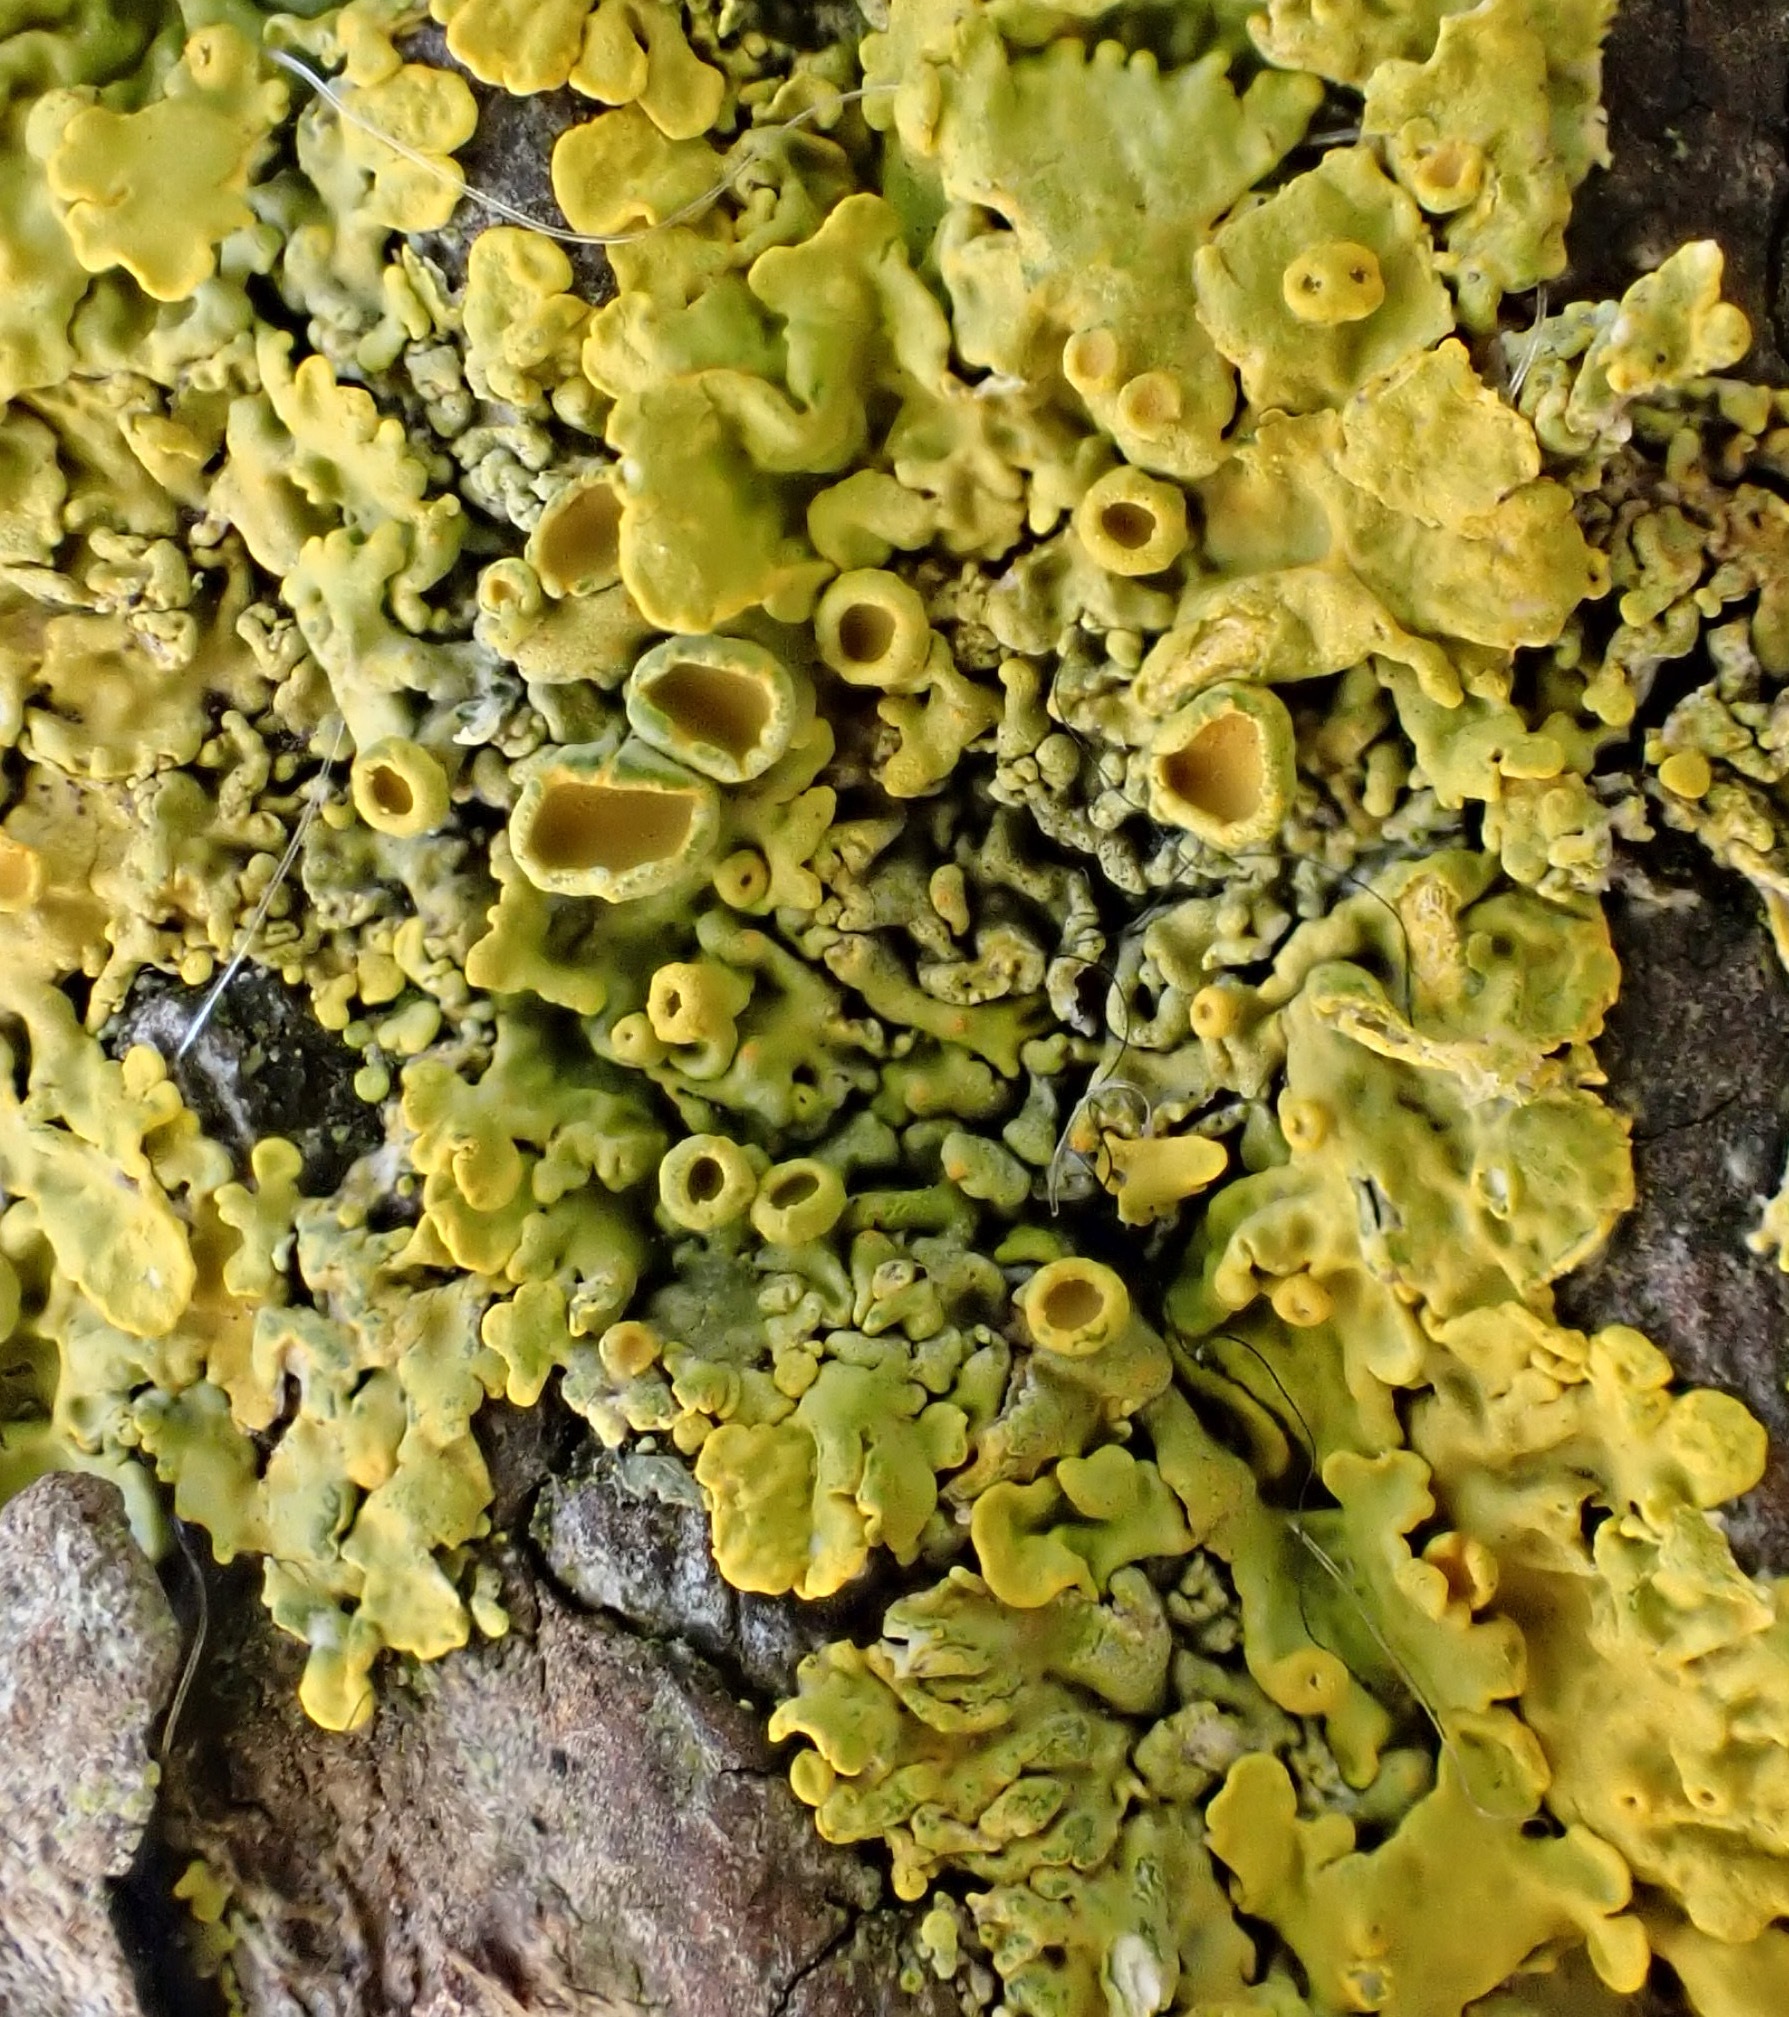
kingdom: Fungi
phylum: Ascomycota
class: Lecanoromycetes
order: Teloschistales
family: Teloschistaceae
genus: Xanthoria
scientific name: Xanthoria parietina
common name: Common orange lichen
